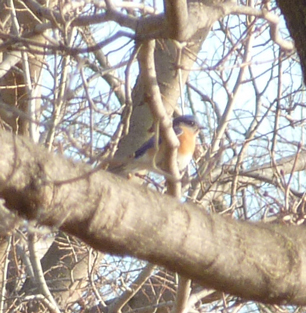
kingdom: Animalia
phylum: Chordata
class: Aves
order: Passeriformes
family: Turdidae
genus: Sialia
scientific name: Sialia sialis
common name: Eastern bluebird
